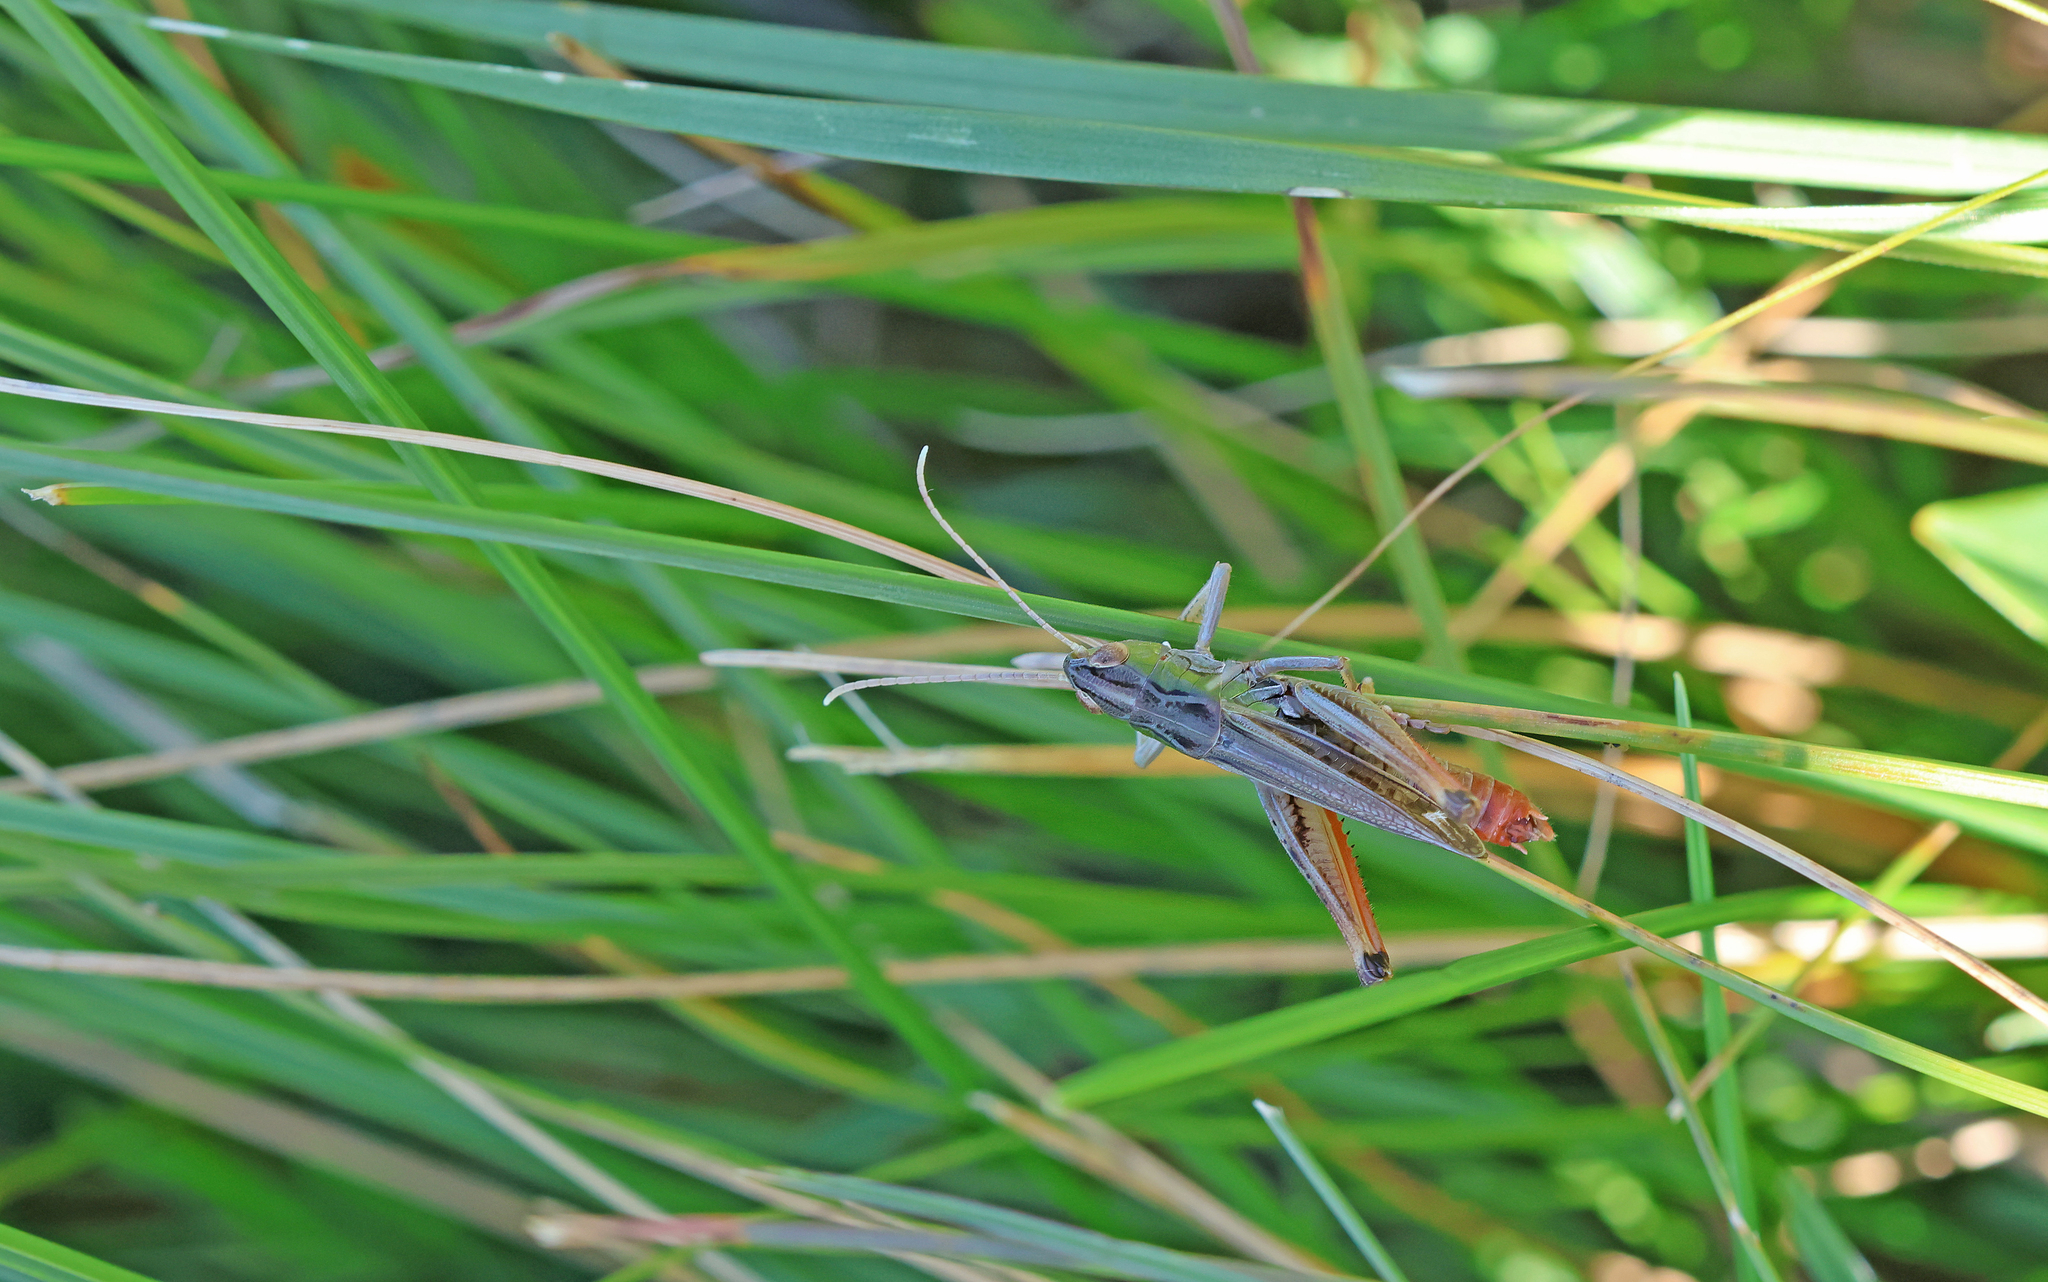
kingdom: Animalia
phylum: Arthropoda
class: Insecta
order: Orthoptera
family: Acrididae
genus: Stenobothrus
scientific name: Stenobothrus nigromaculatus
